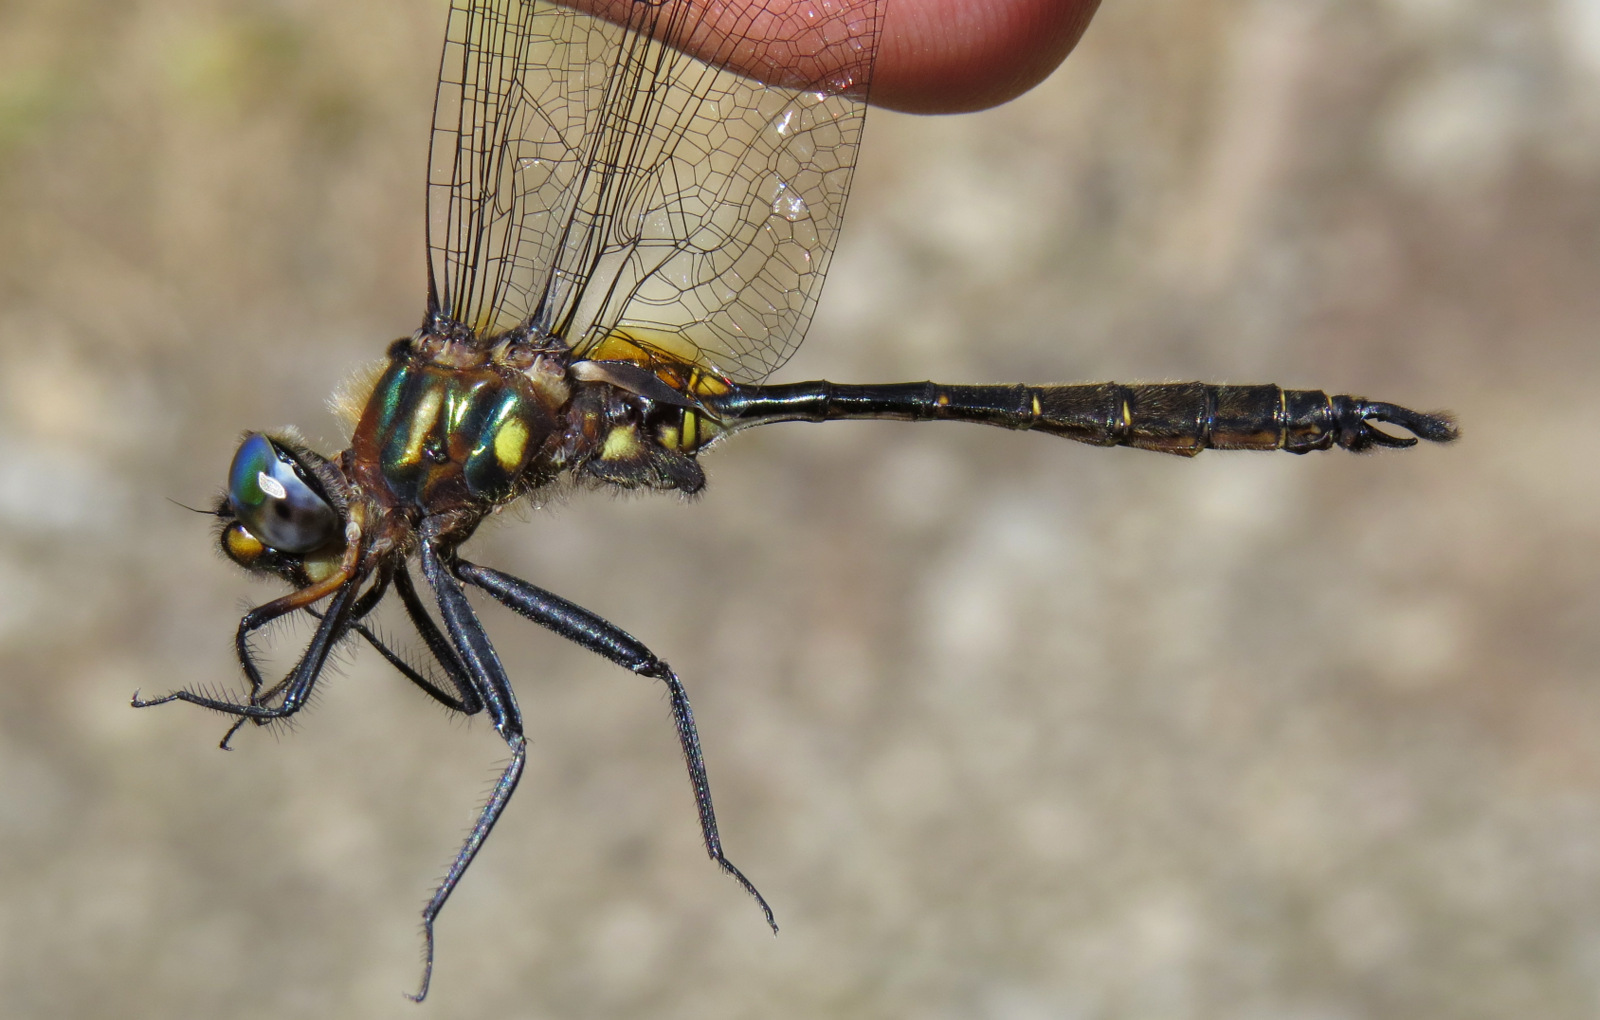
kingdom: Animalia
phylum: Arthropoda
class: Insecta
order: Odonata
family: Corduliidae
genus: Somatochlora
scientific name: Somatochlora walshii
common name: Brush-tipped emerald
